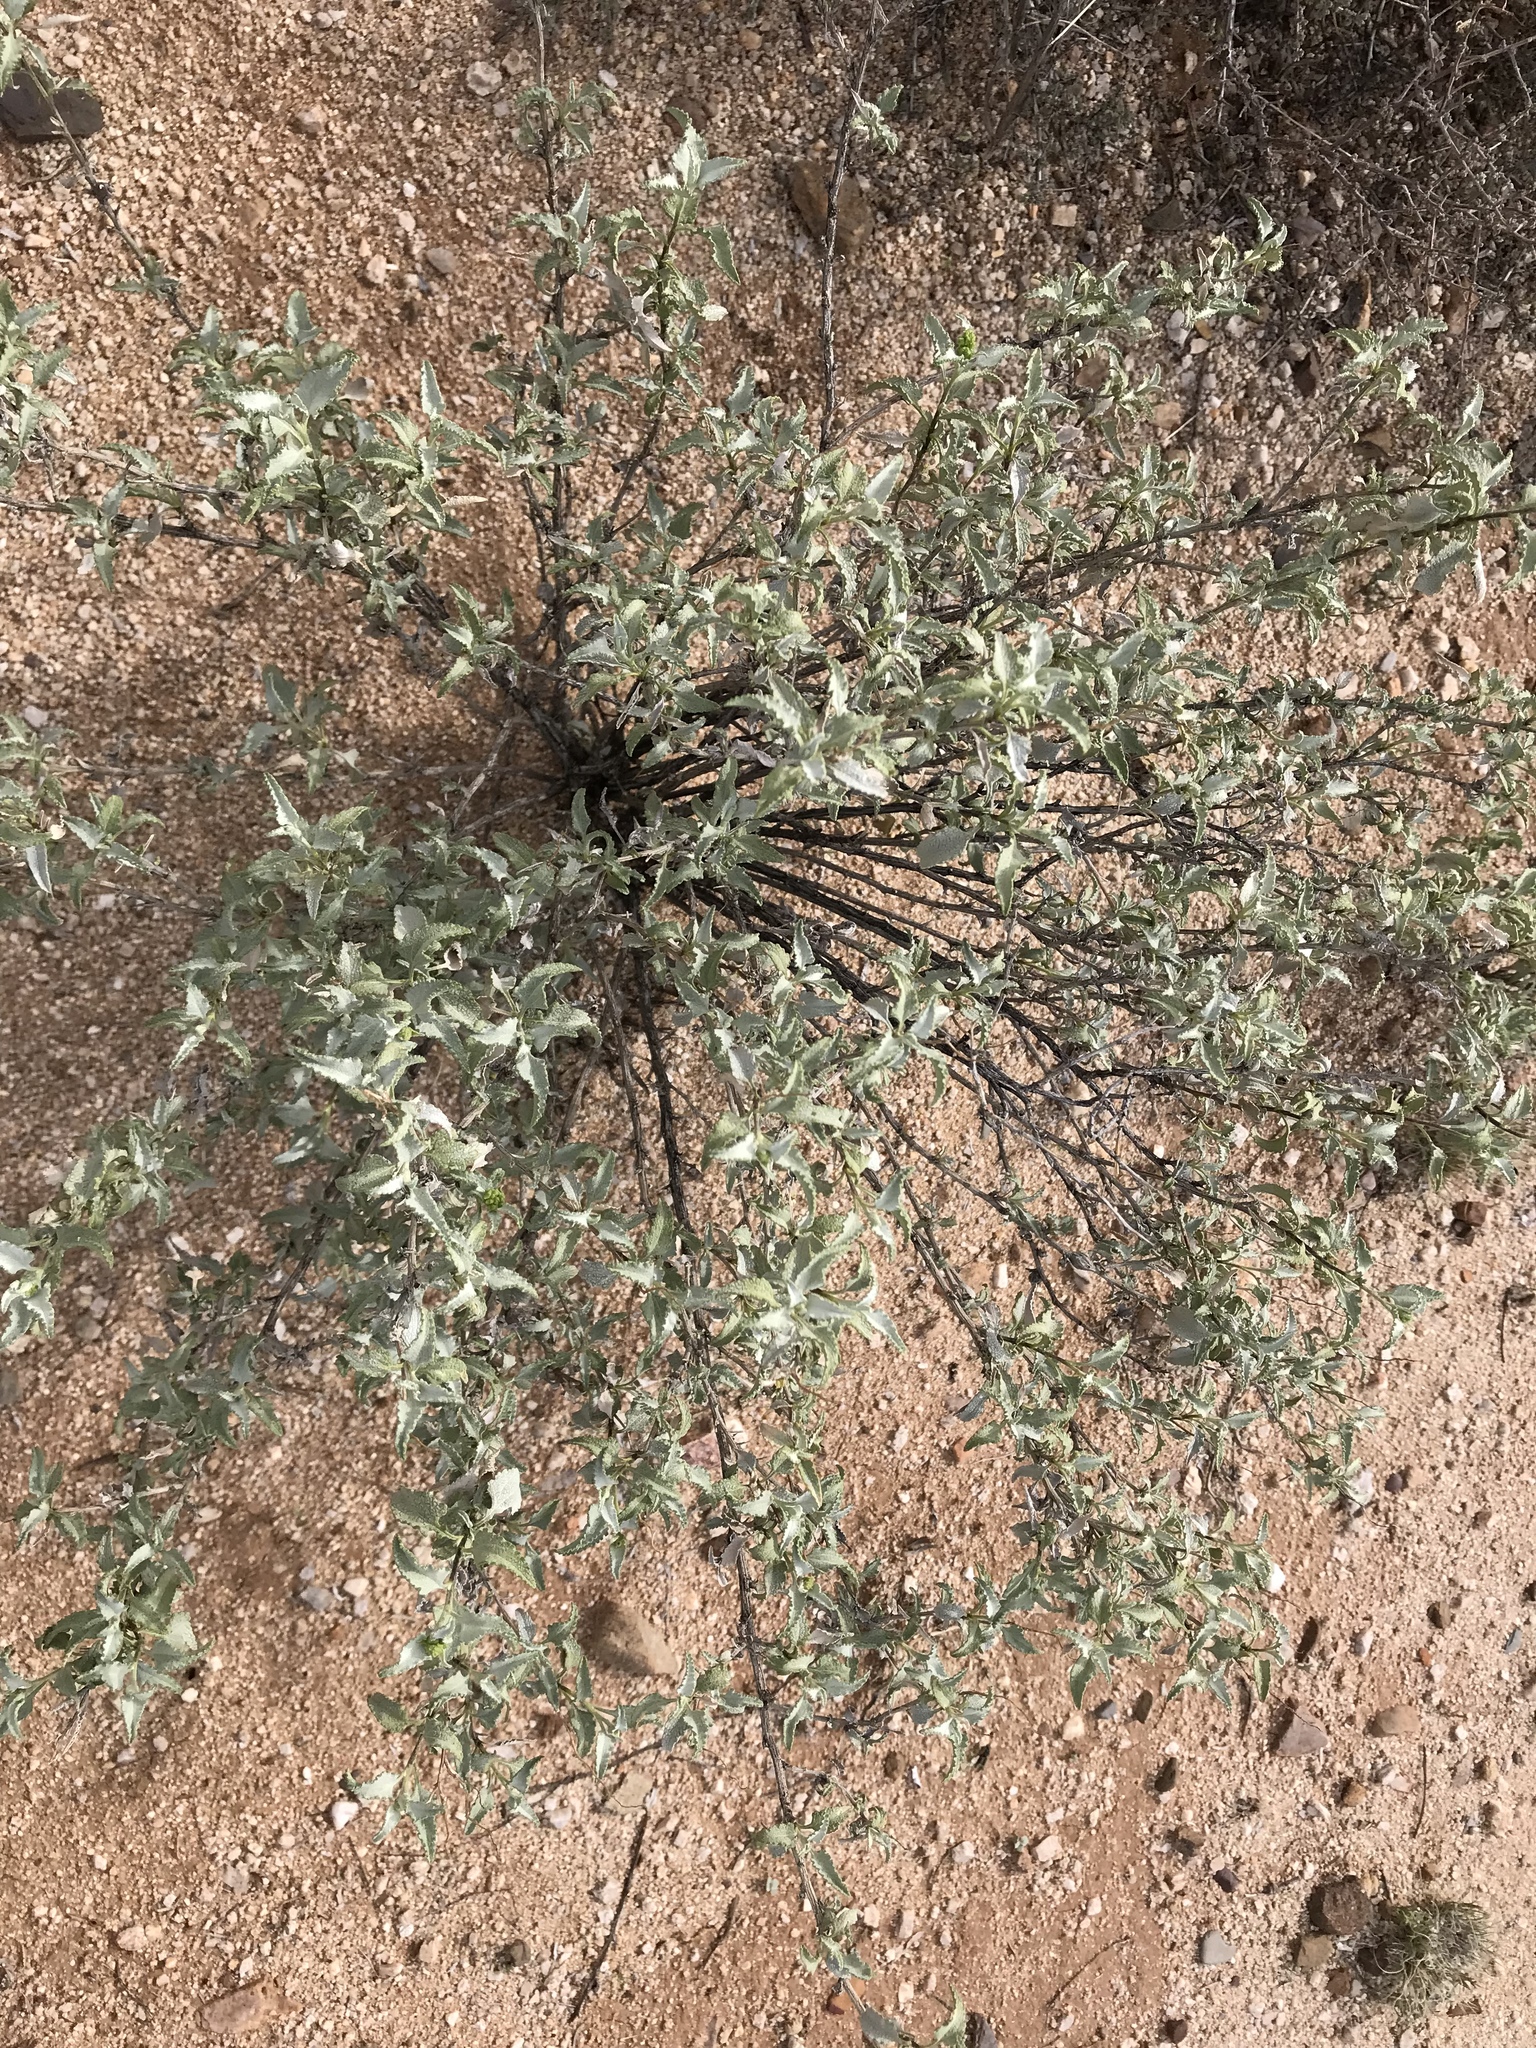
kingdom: Plantae
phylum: Tracheophyta
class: Magnoliopsida
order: Asterales
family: Asteraceae
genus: Ambrosia
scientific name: Ambrosia deltoidea
